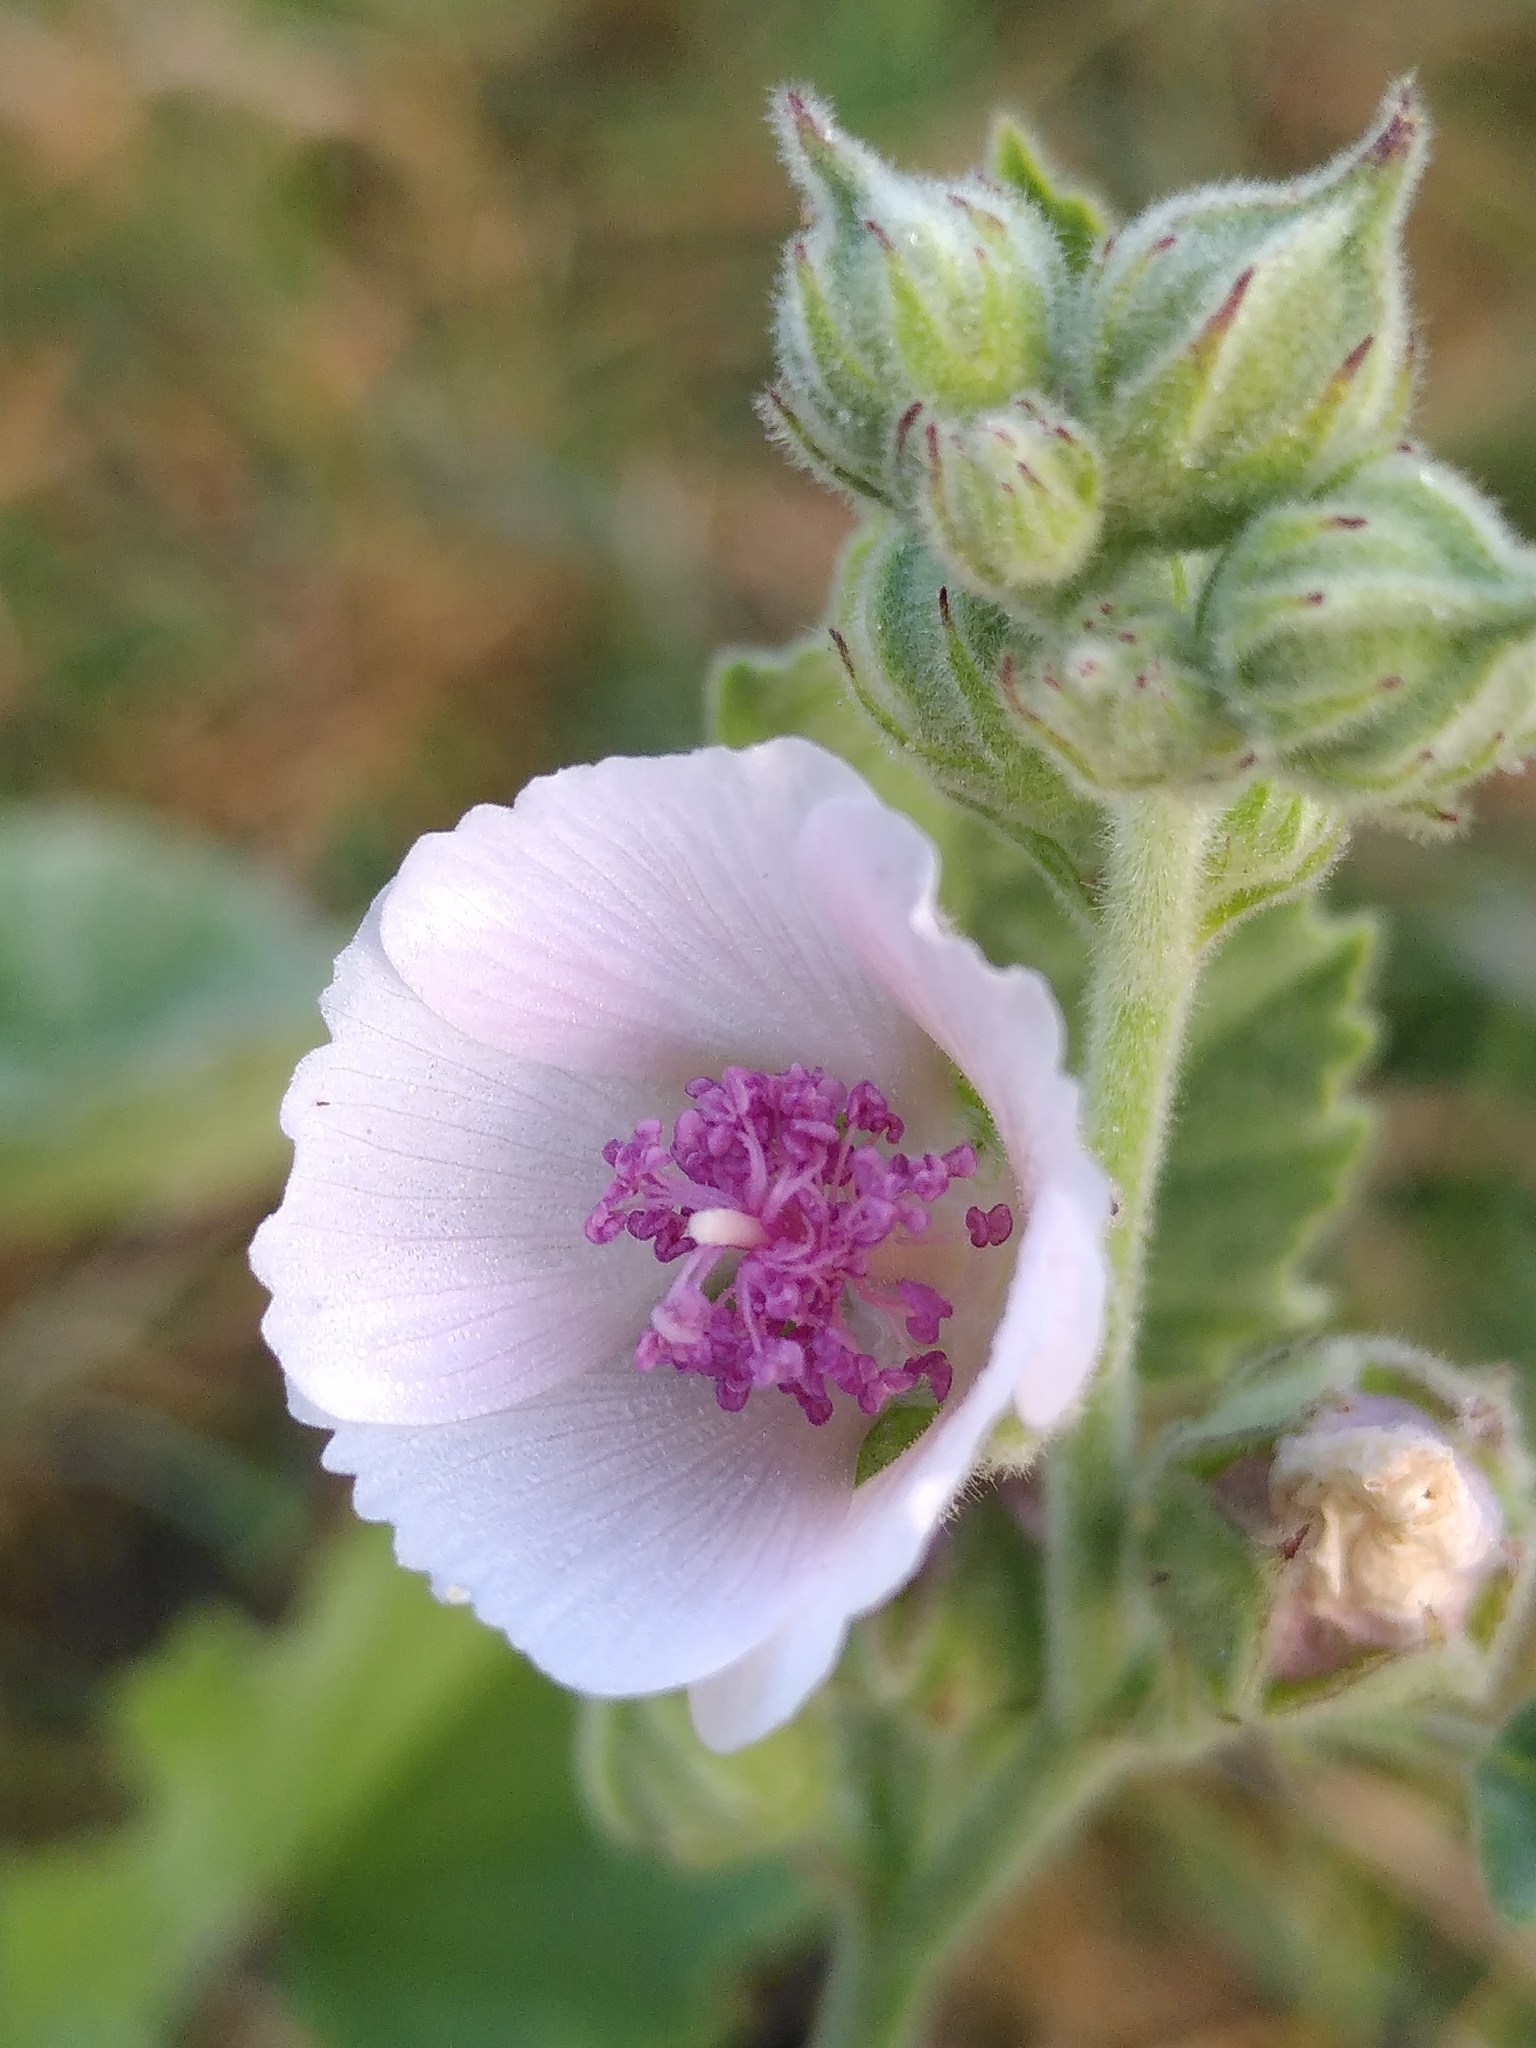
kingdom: Plantae
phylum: Tracheophyta
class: Magnoliopsida
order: Malvales
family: Malvaceae
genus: Althaea
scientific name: Althaea officinalis
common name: Marsh-mallow
